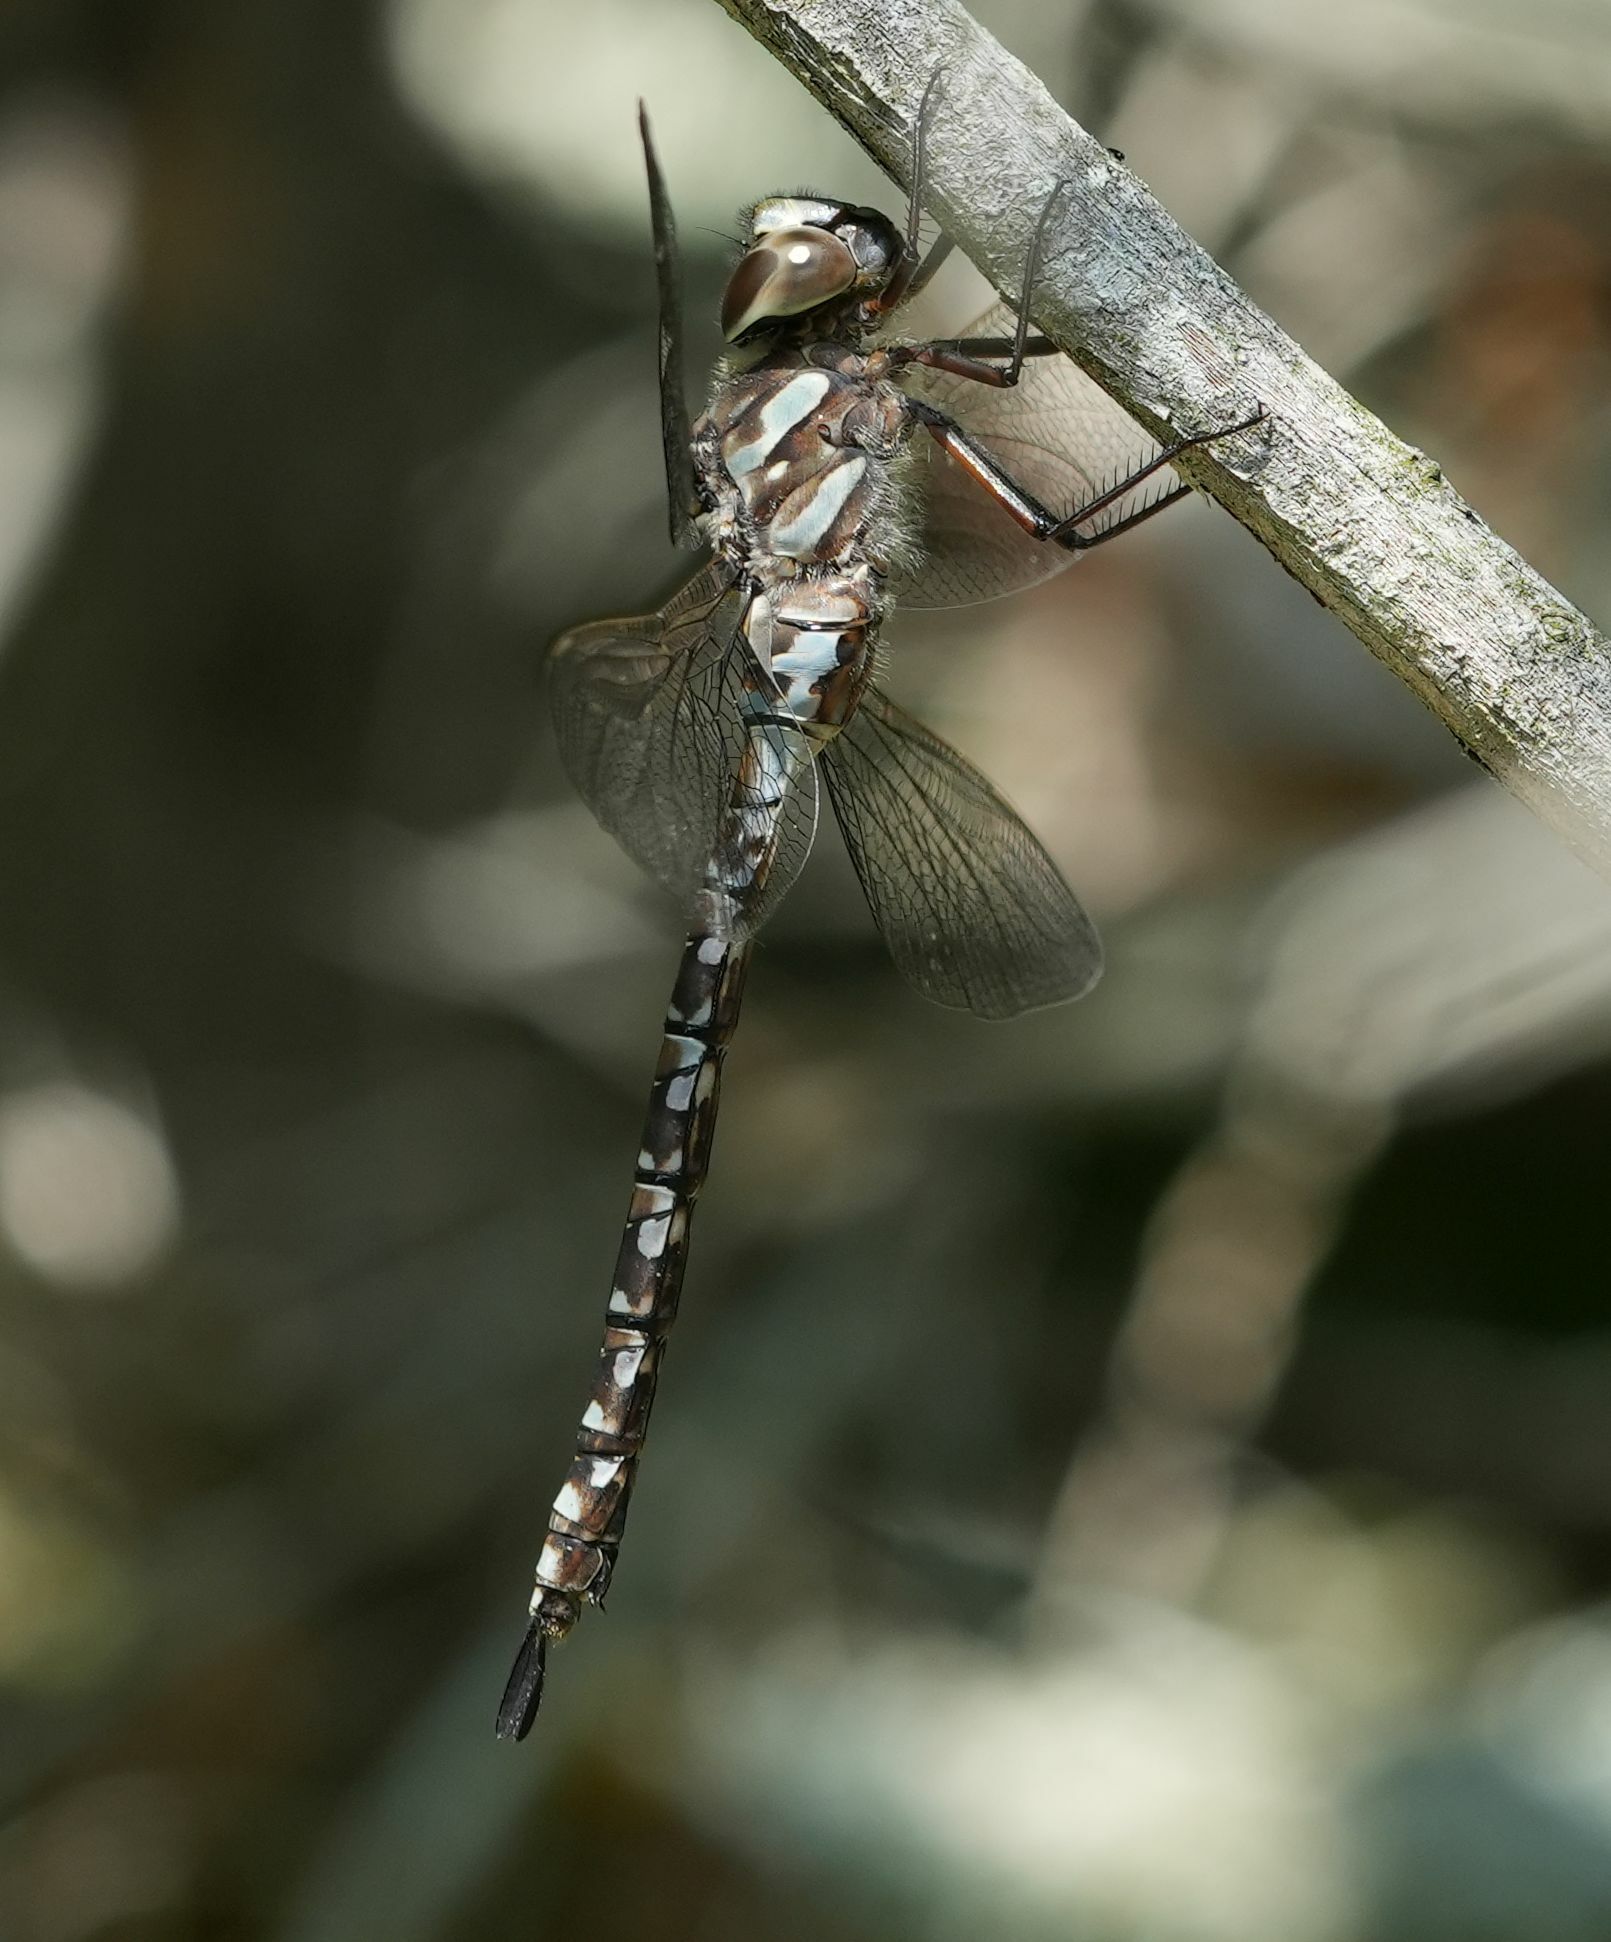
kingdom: Animalia
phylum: Arthropoda
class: Insecta
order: Odonata
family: Aeshnidae
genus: Aeshna
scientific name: Aeshna canadensis
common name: Canada darner
